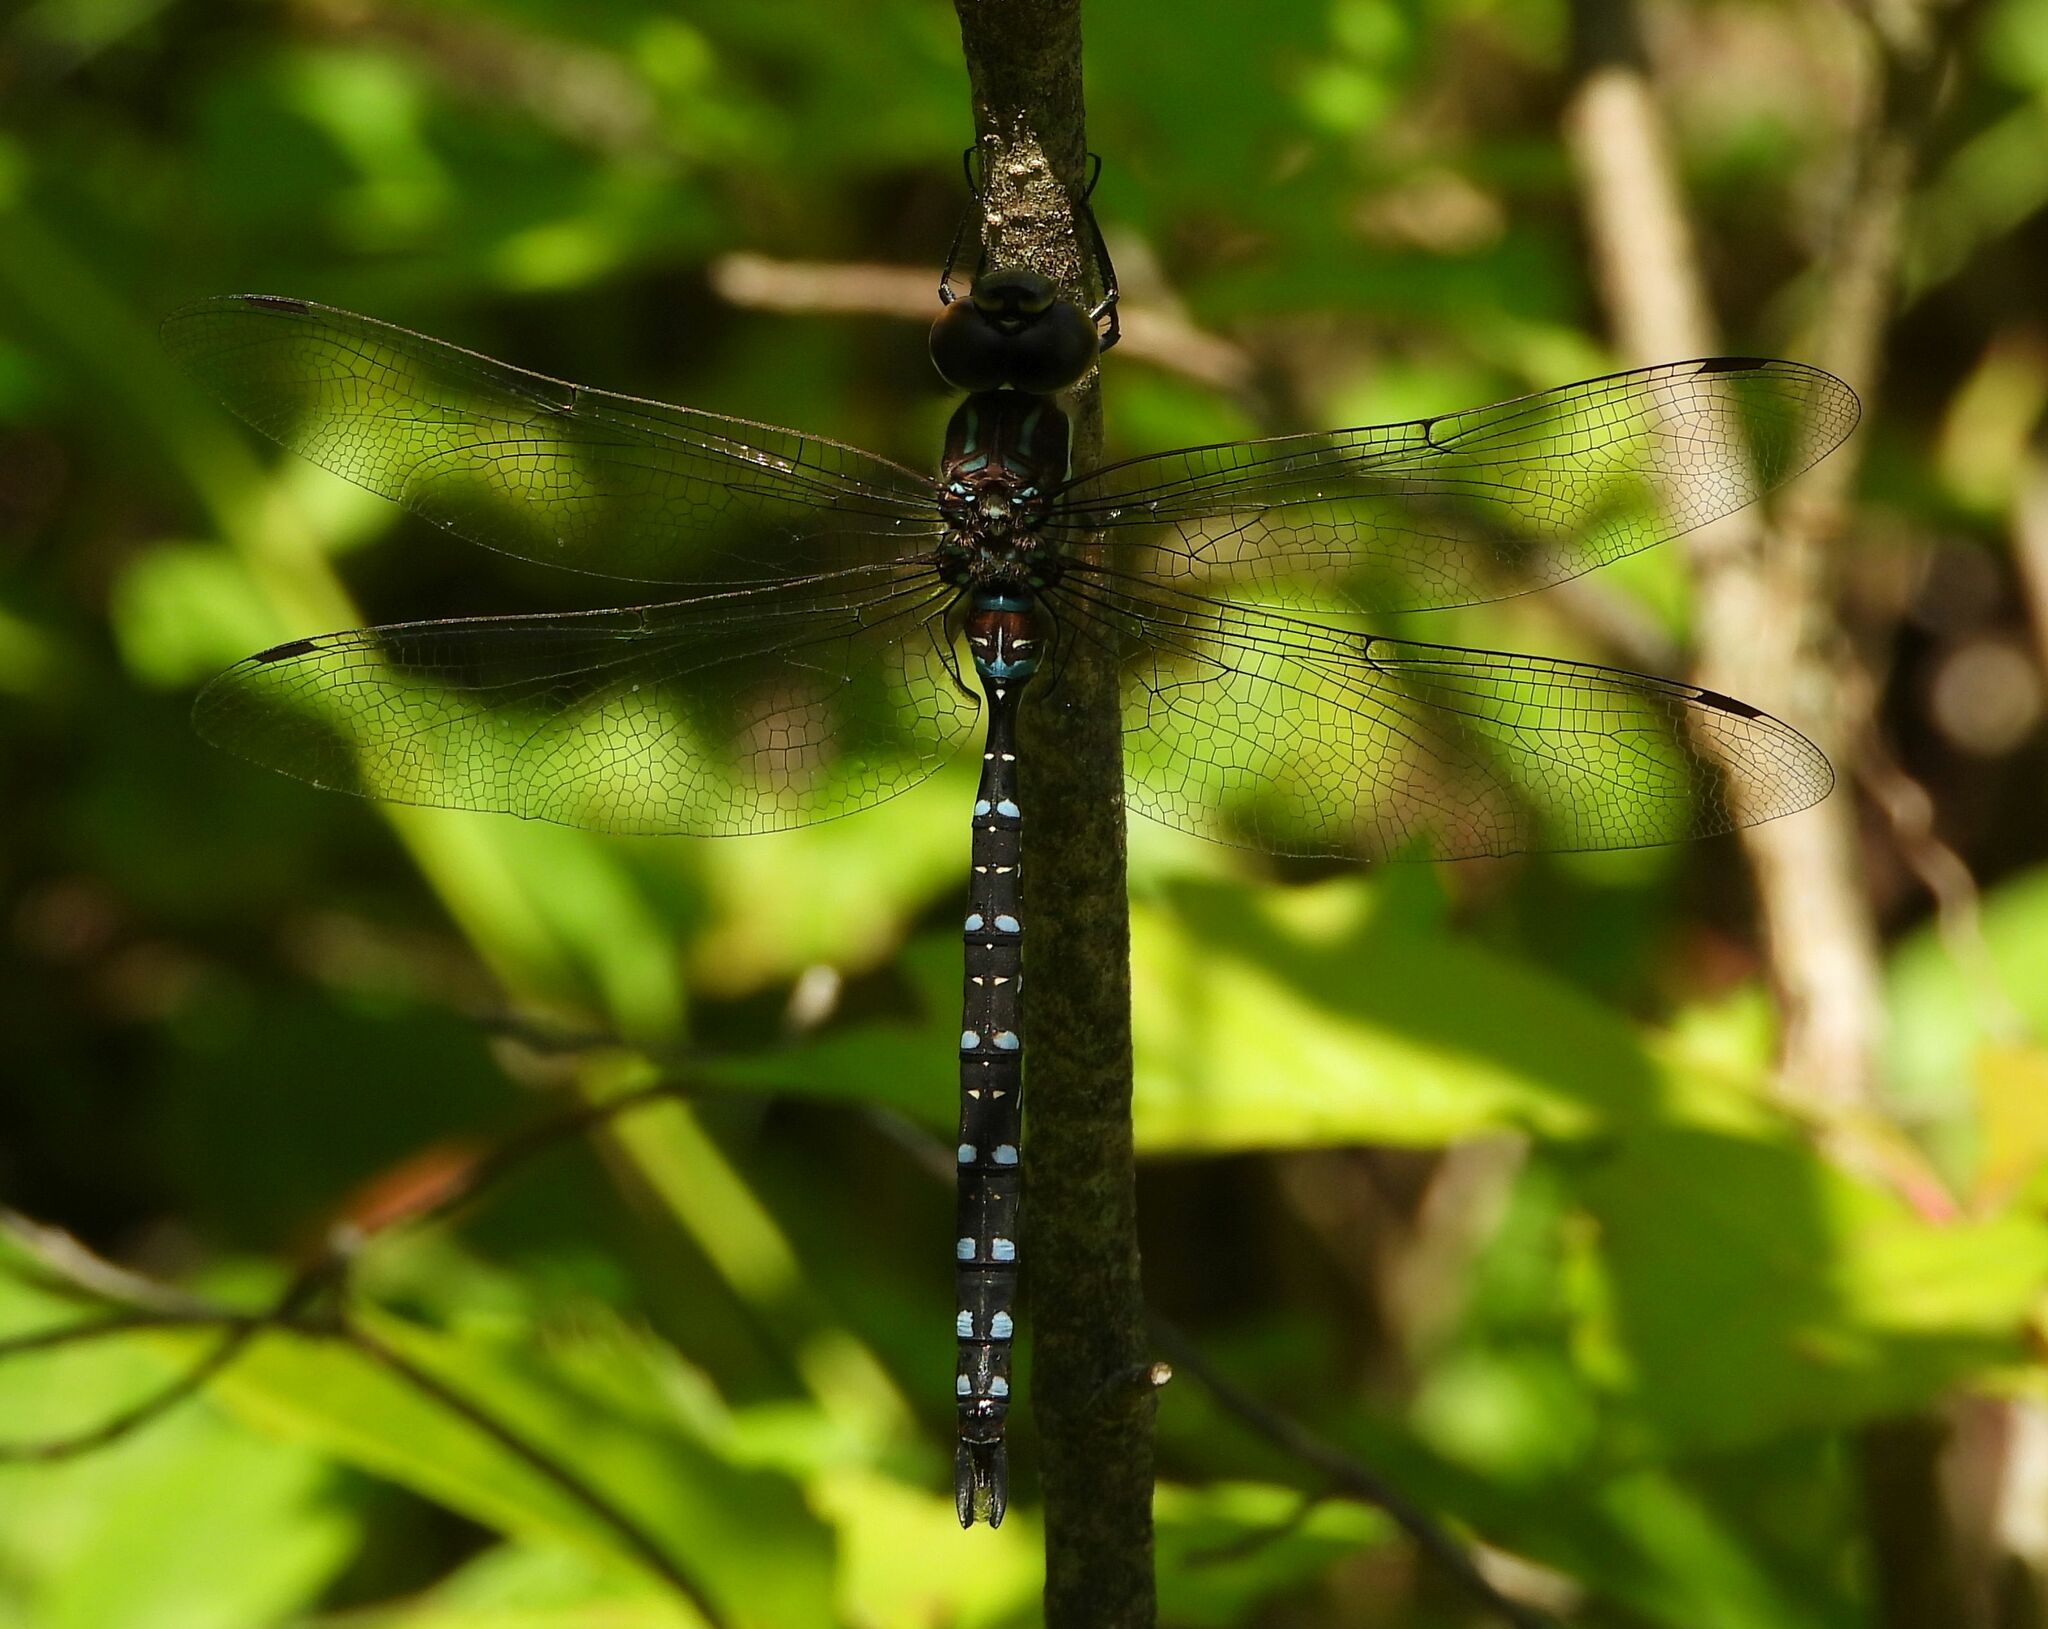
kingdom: Animalia
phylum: Arthropoda
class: Insecta
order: Odonata
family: Aeshnidae
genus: Aeshna
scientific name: Aeshna tuberculifera
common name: Aeschne à tubercules
